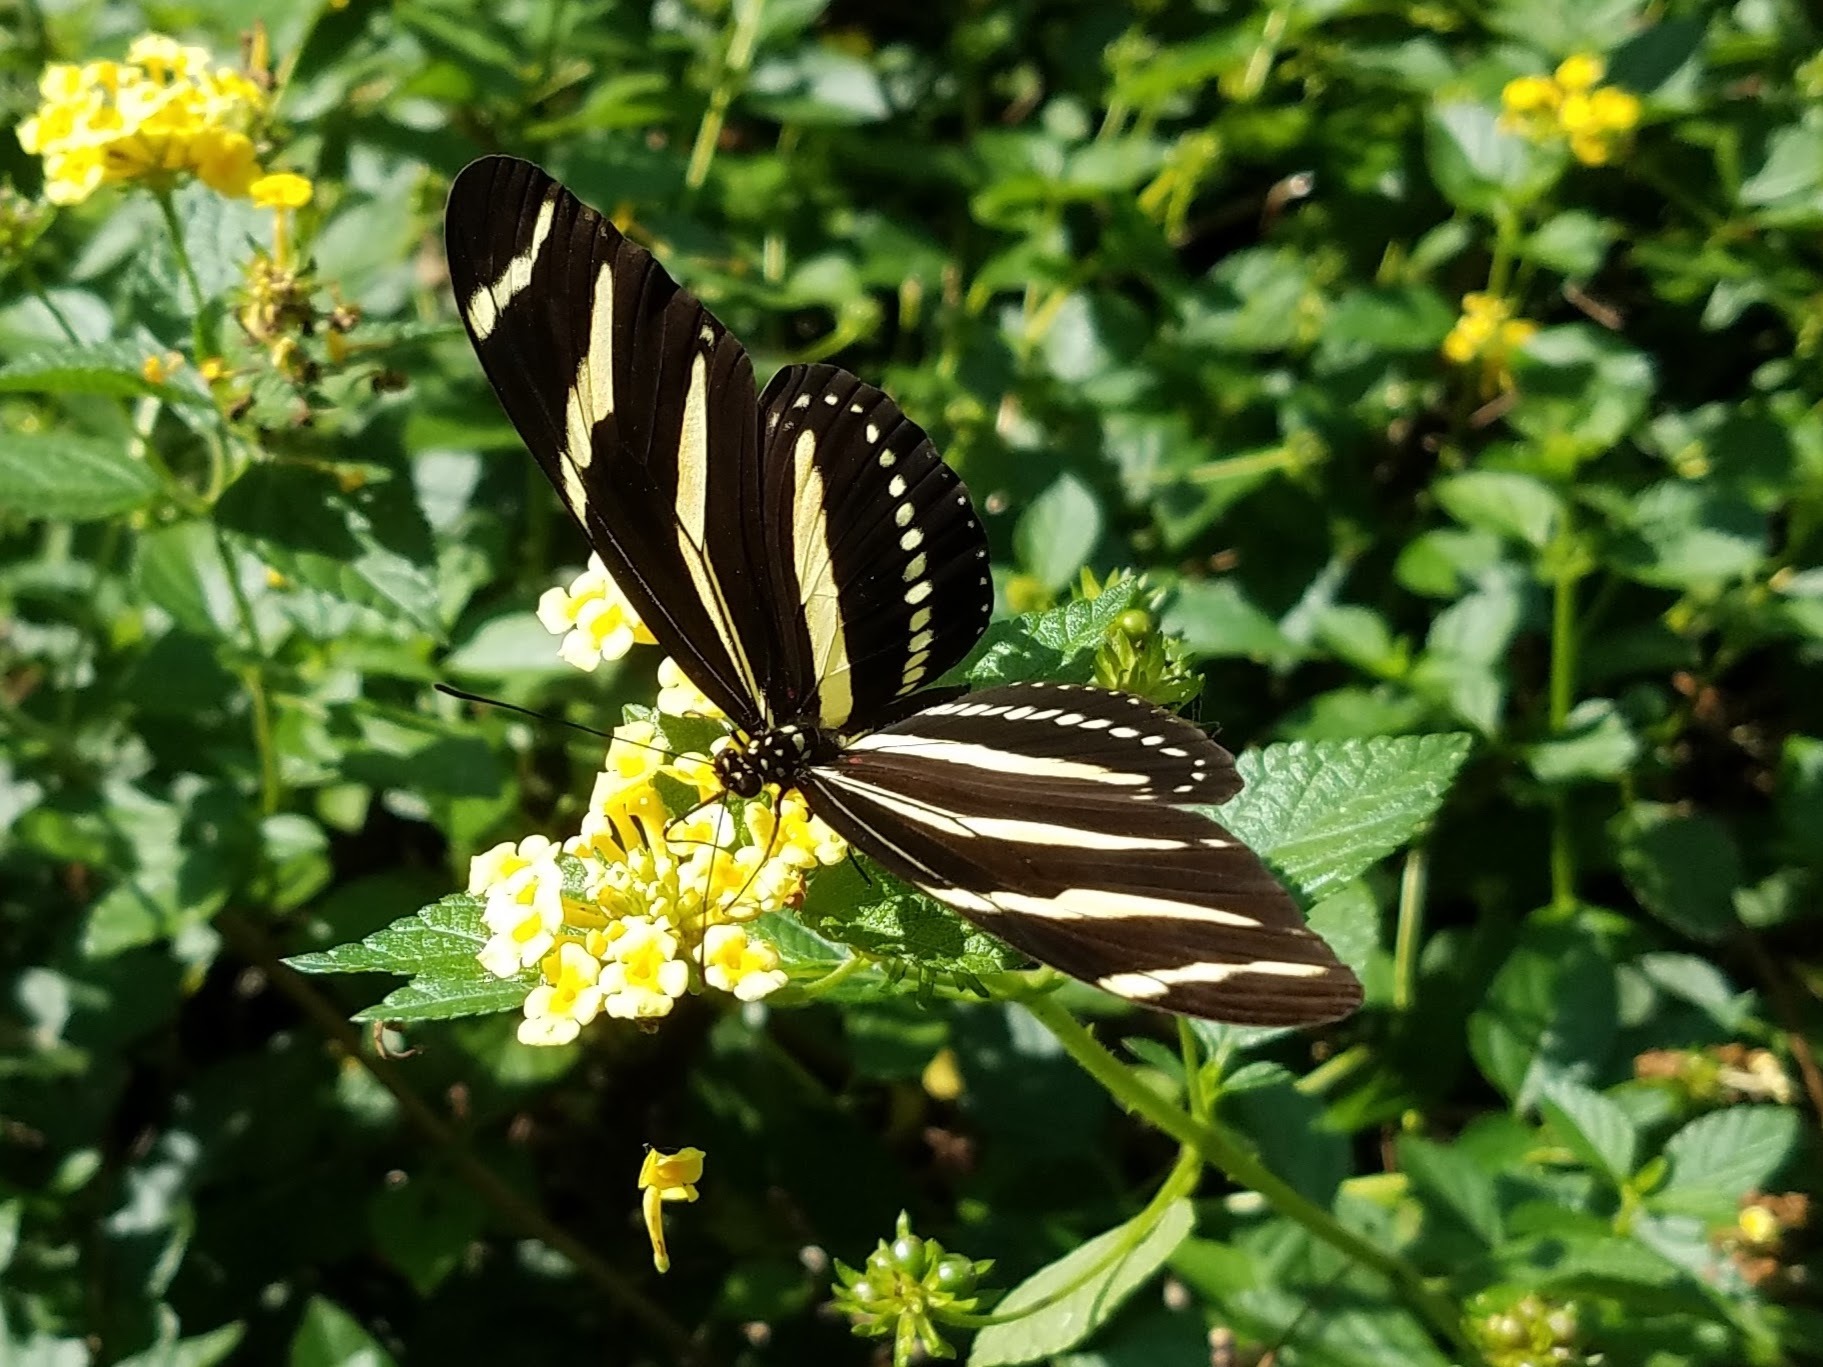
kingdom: Animalia
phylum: Arthropoda
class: Insecta
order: Lepidoptera
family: Nymphalidae
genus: Heliconius
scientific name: Heliconius charithonia
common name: Zebra long wing
